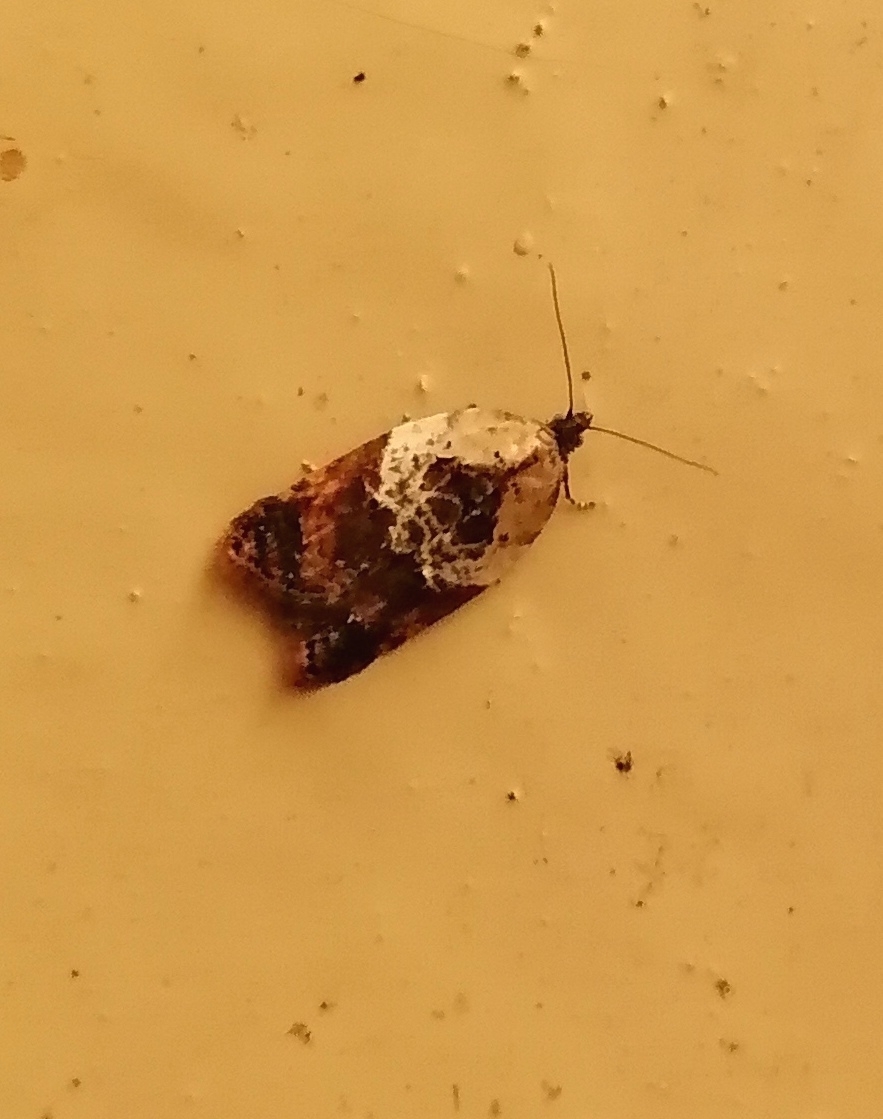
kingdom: Animalia
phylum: Arthropoda
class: Insecta
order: Lepidoptera
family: Tortricidae
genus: Acleris
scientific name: Acleris variegana
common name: Garden rose tortrix
